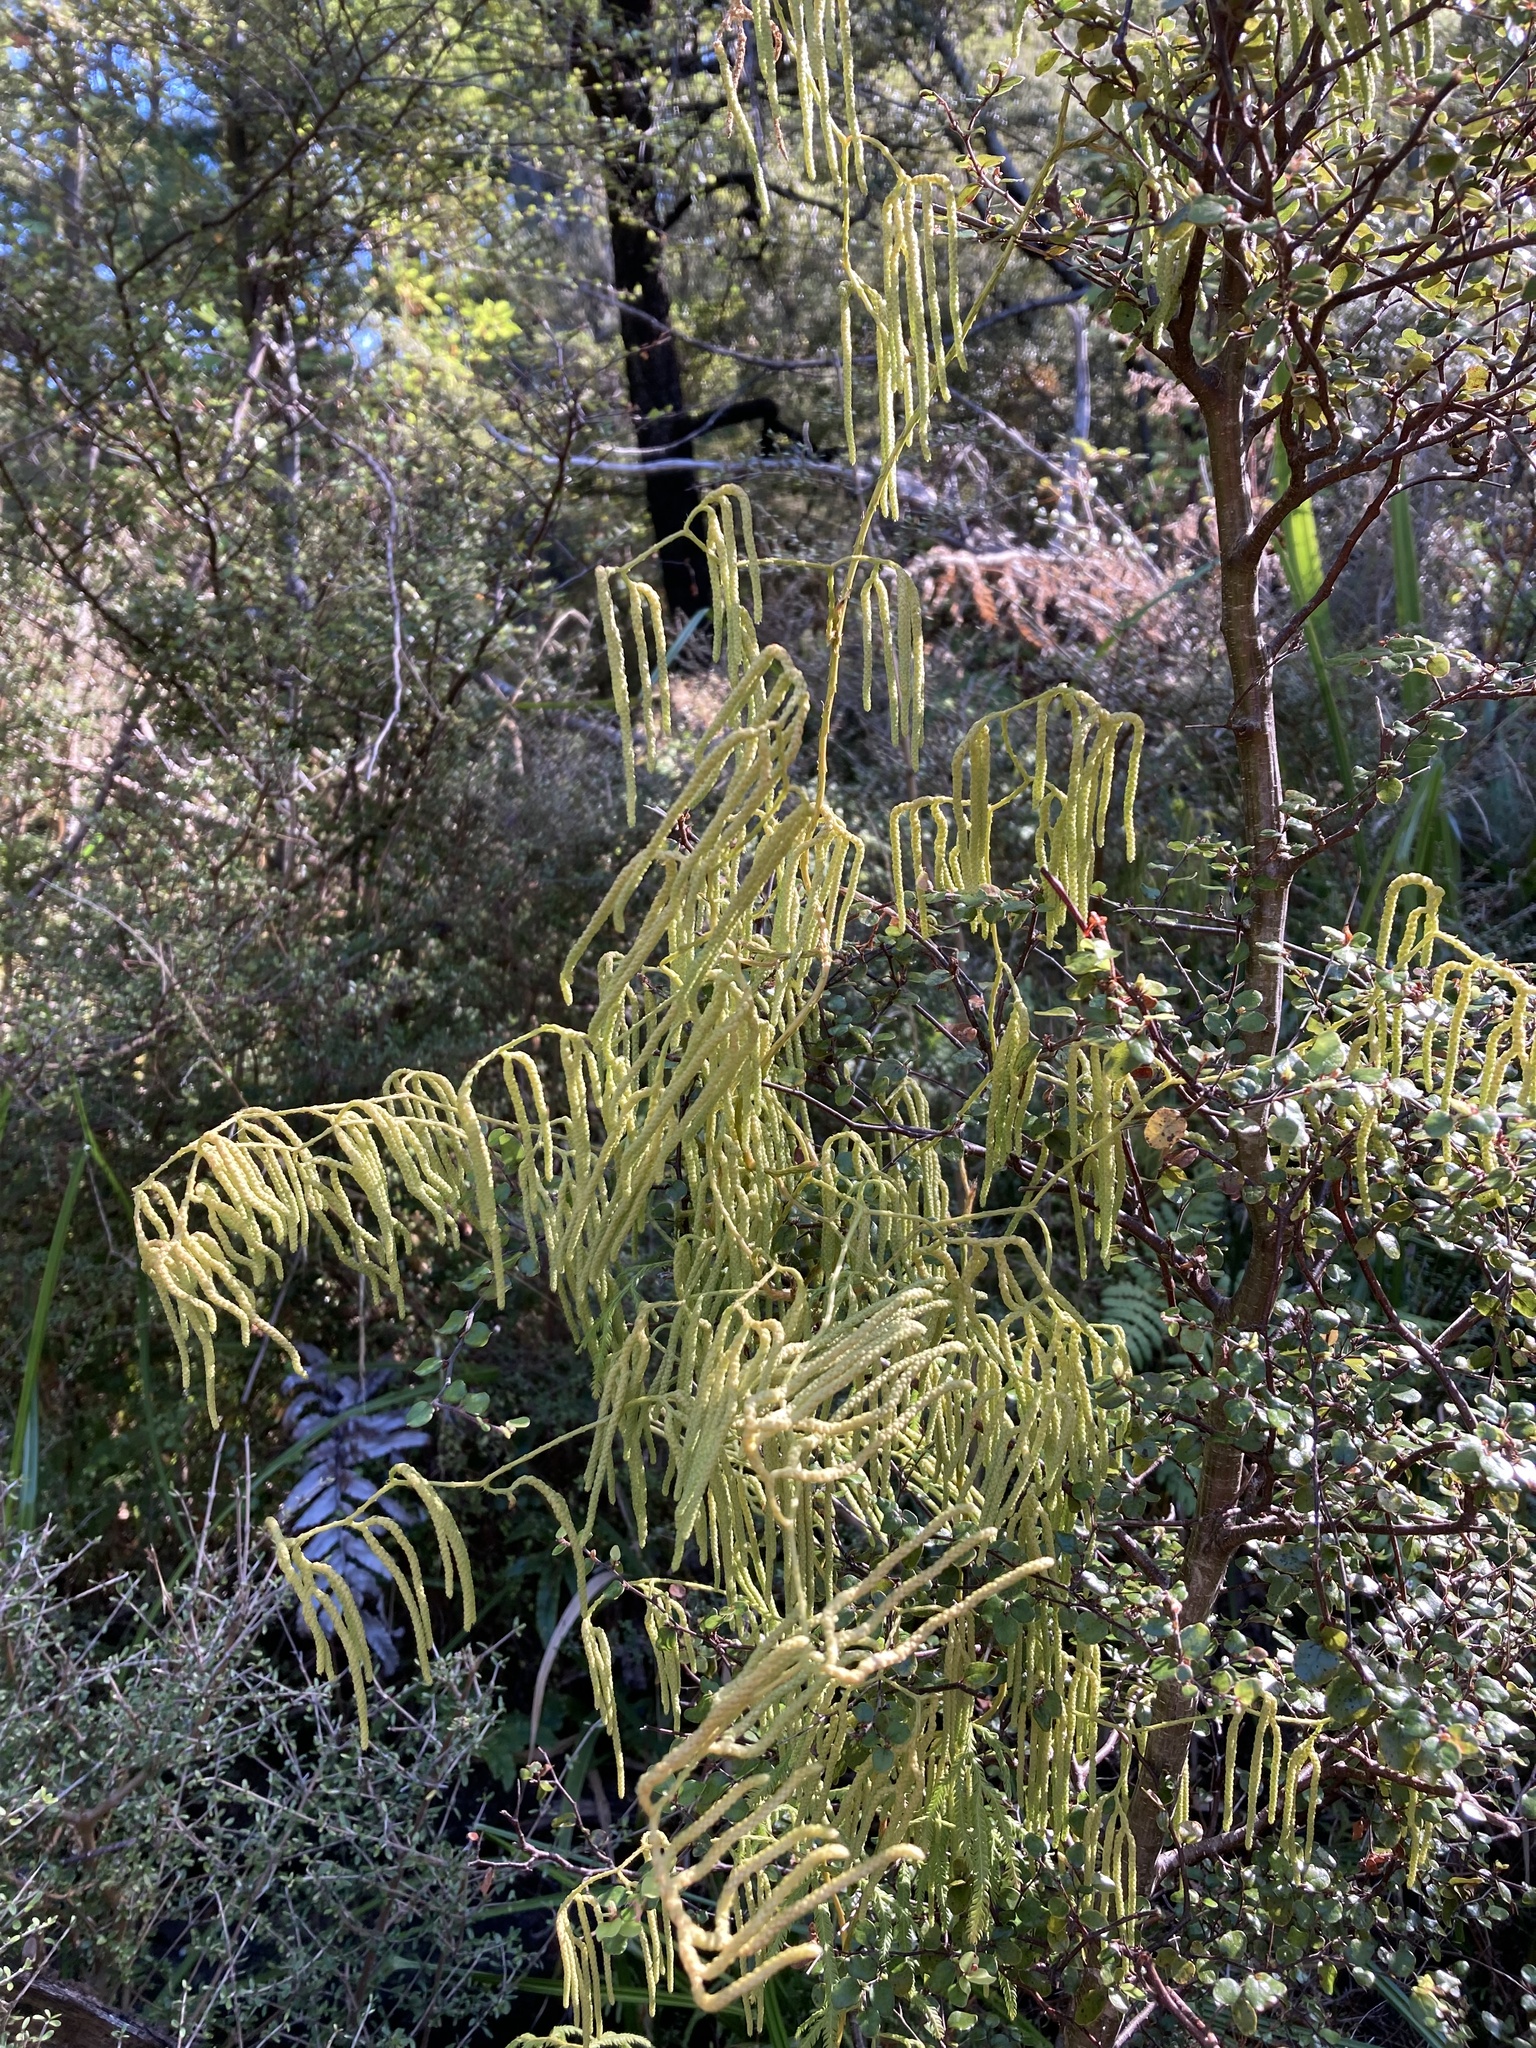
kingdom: Plantae
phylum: Tracheophyta
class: Lycopodiopsida
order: Lycopodiales
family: Lycopodiaceae
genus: Lycopodium
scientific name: Lycopodium volubile
